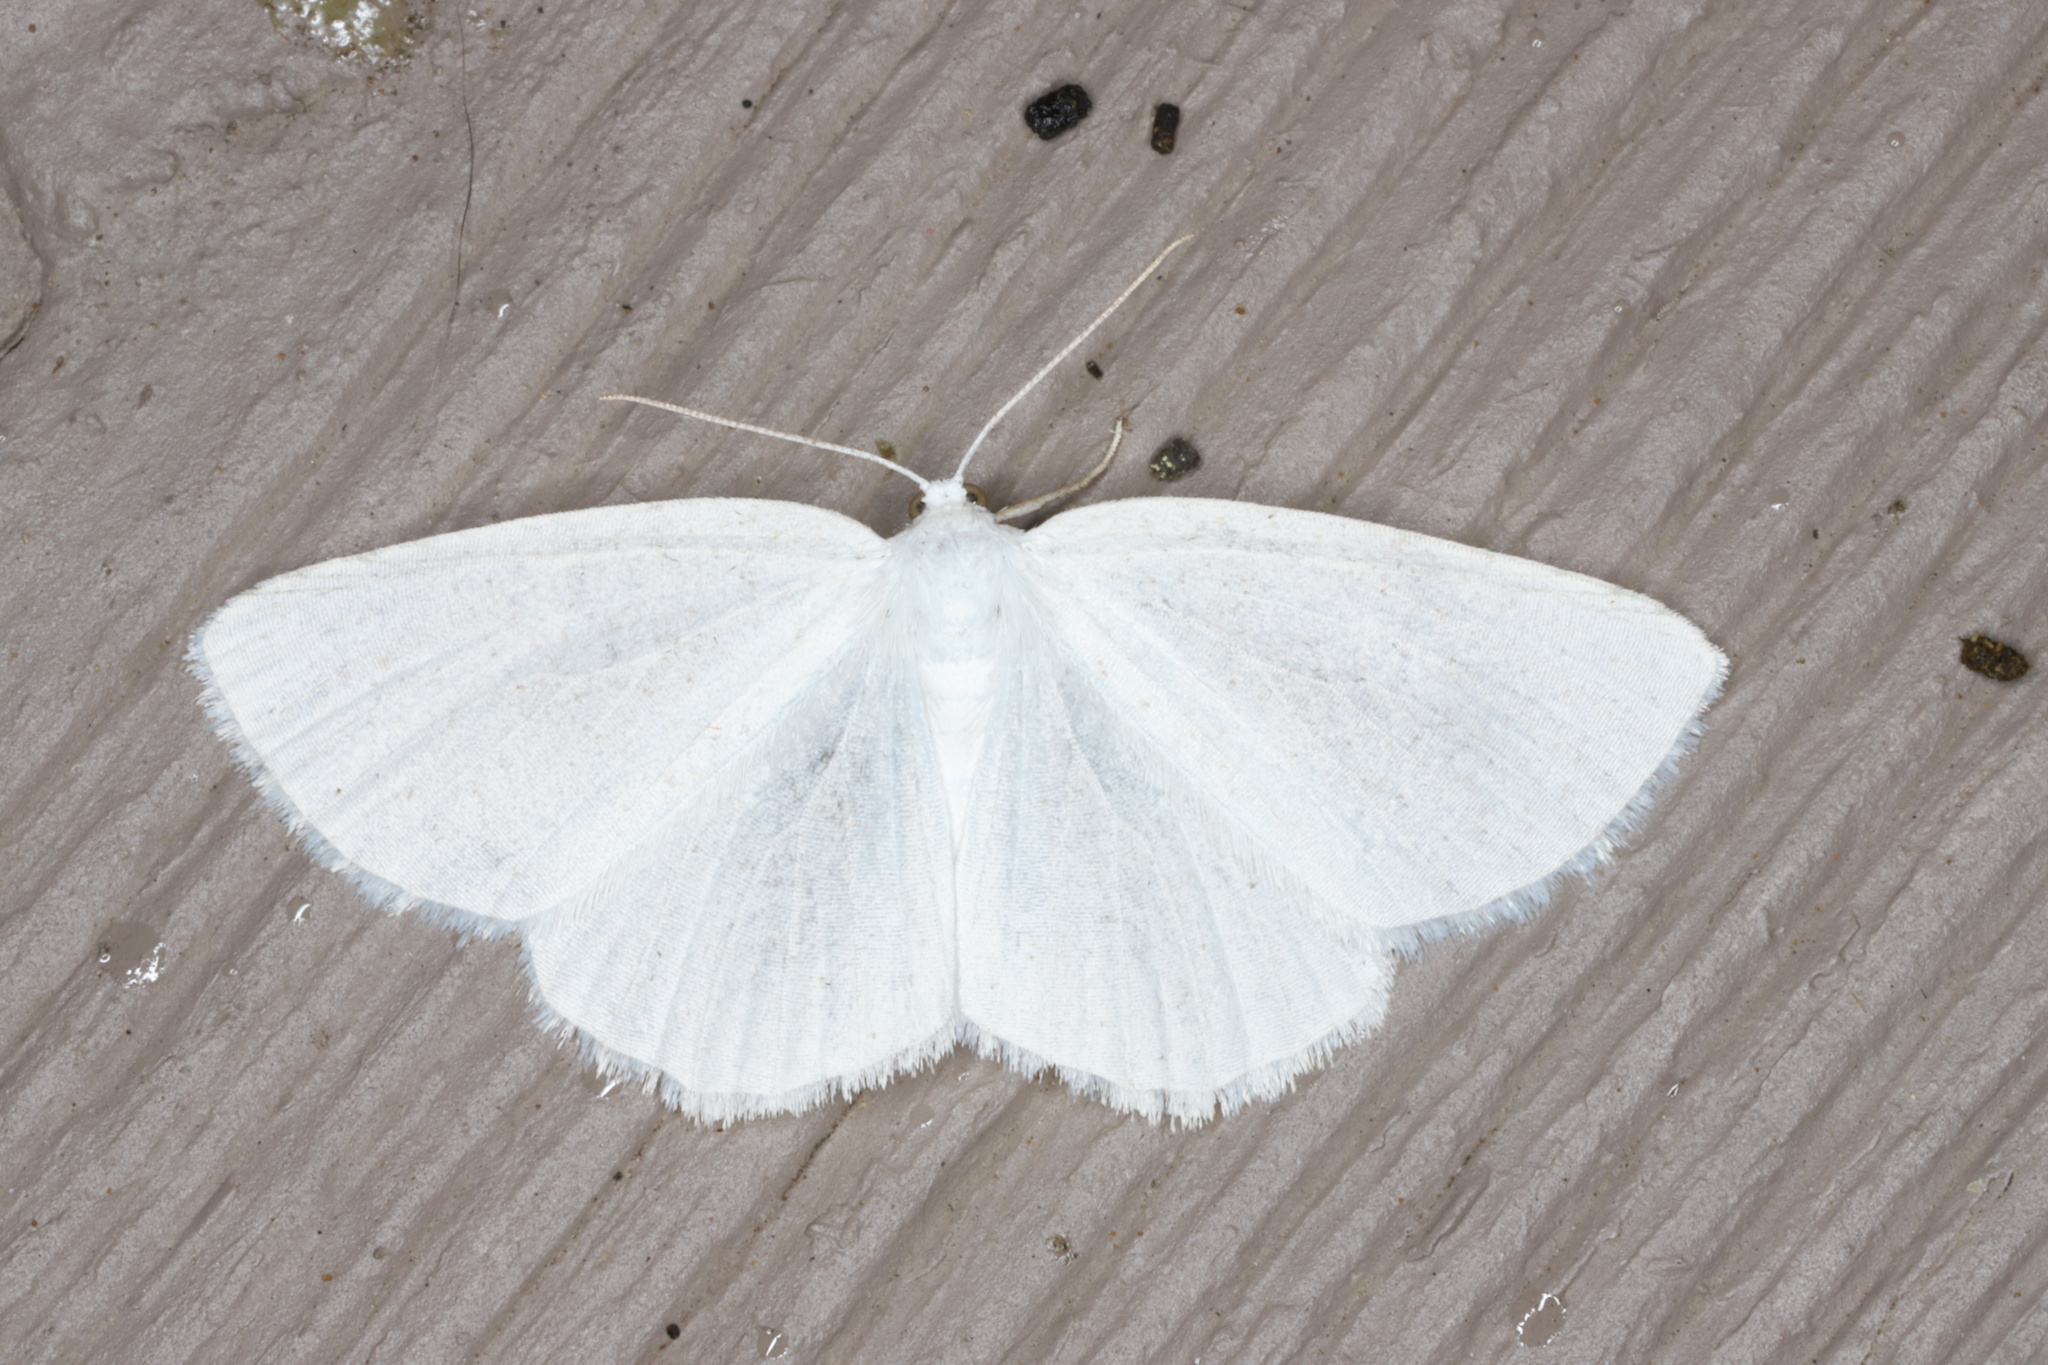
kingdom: Animalia
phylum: Arthropoda
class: Insecta
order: Lepidoptera
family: Geometridae
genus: Lomographa
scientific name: Lomographa vestaliata
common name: White spring moth
